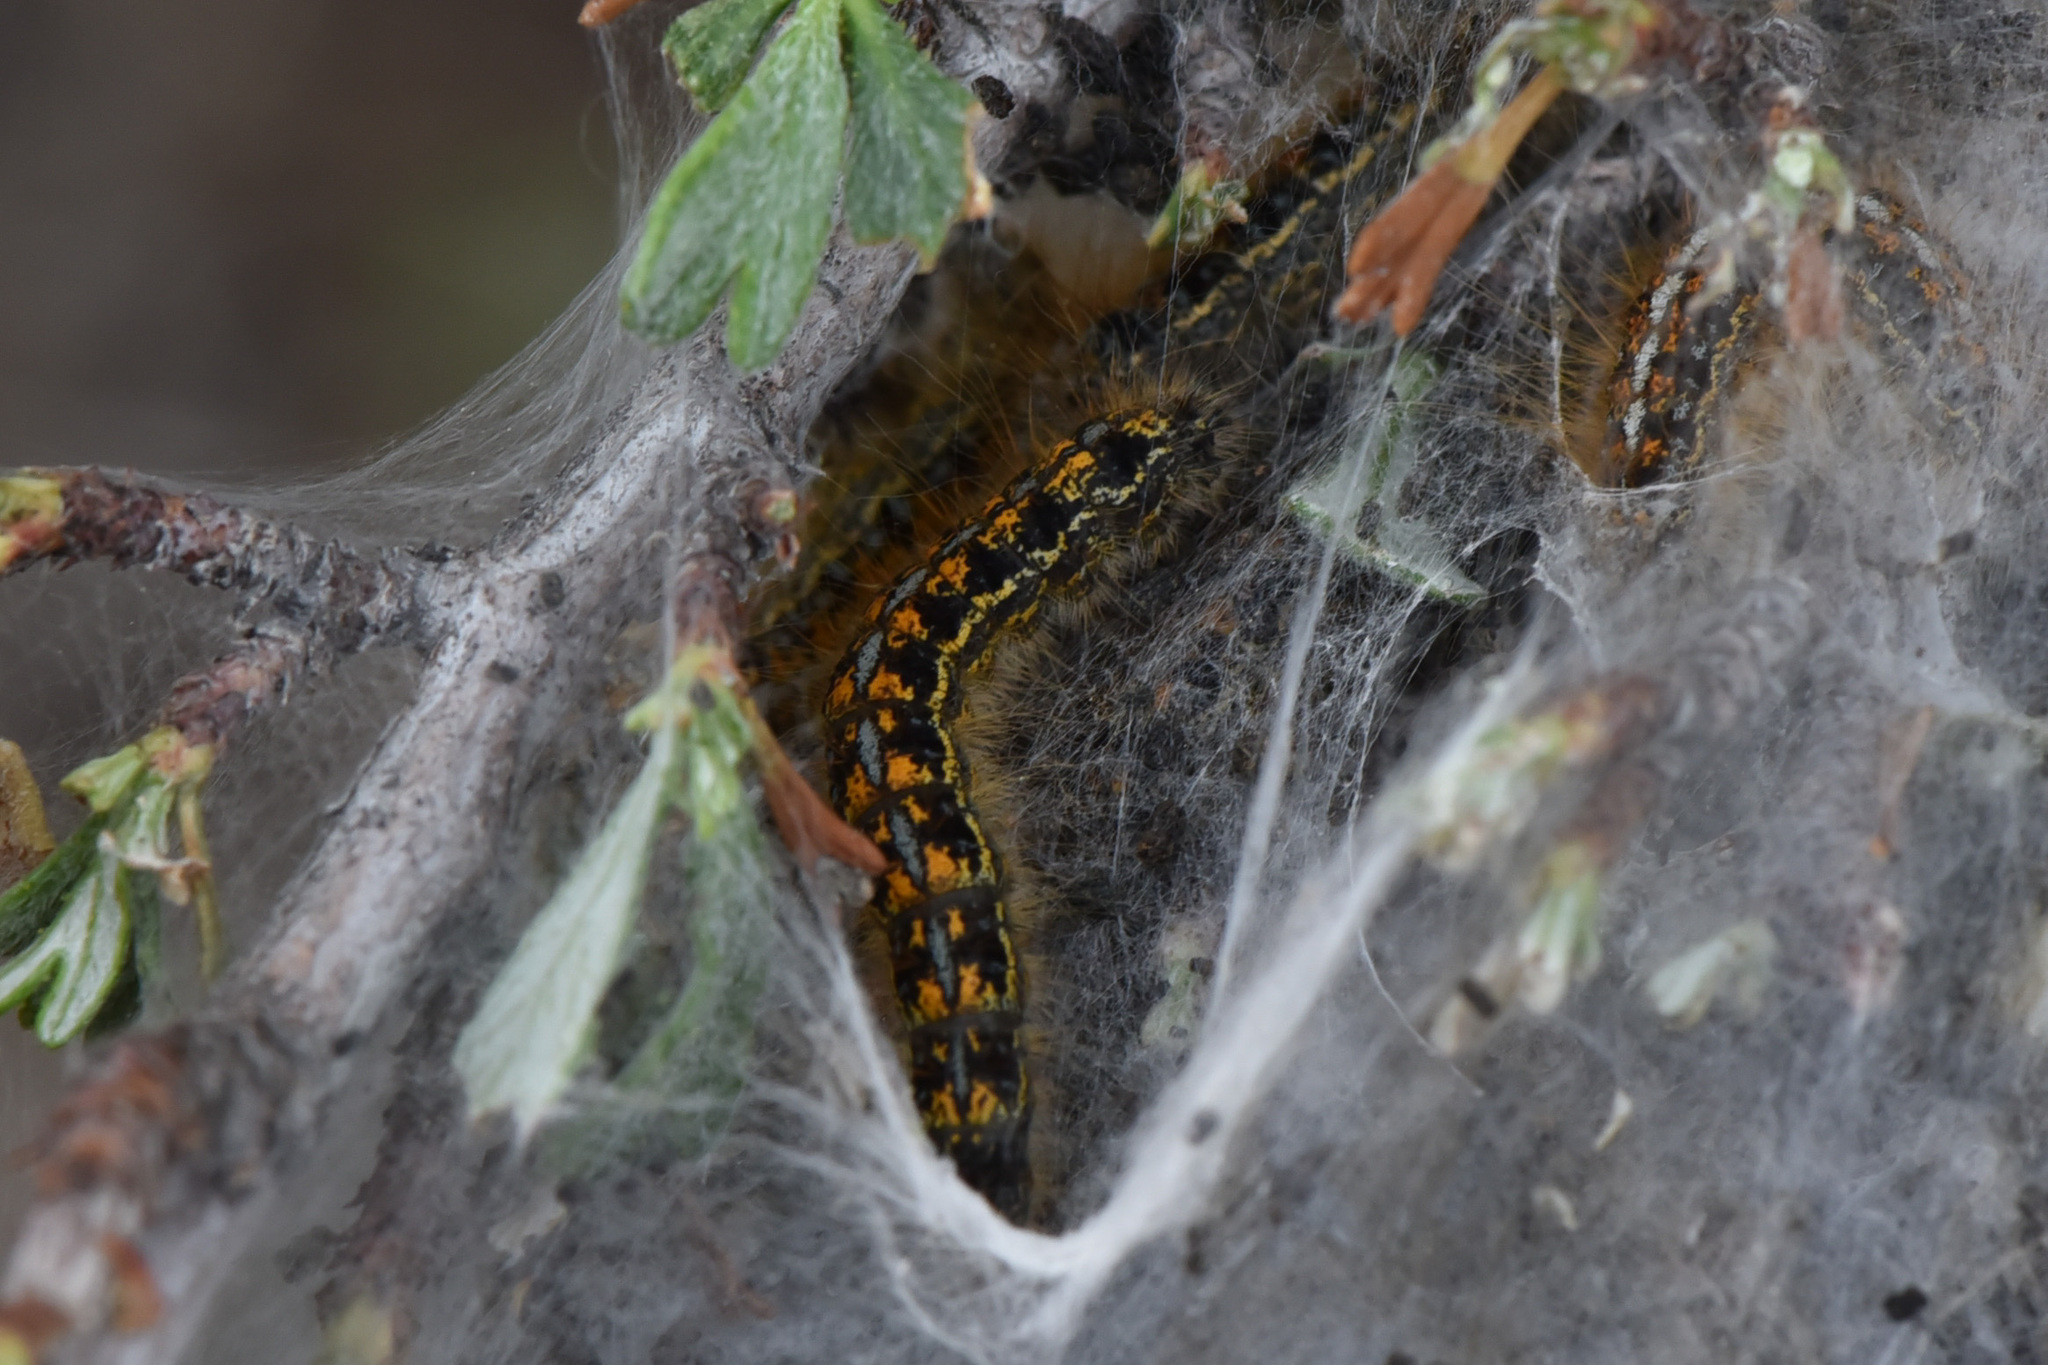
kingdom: Animalia
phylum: Arthropoda
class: Insecta
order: Lepidoptera
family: Lasiocampidae
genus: Malacosoma
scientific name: Malacosoma californica
